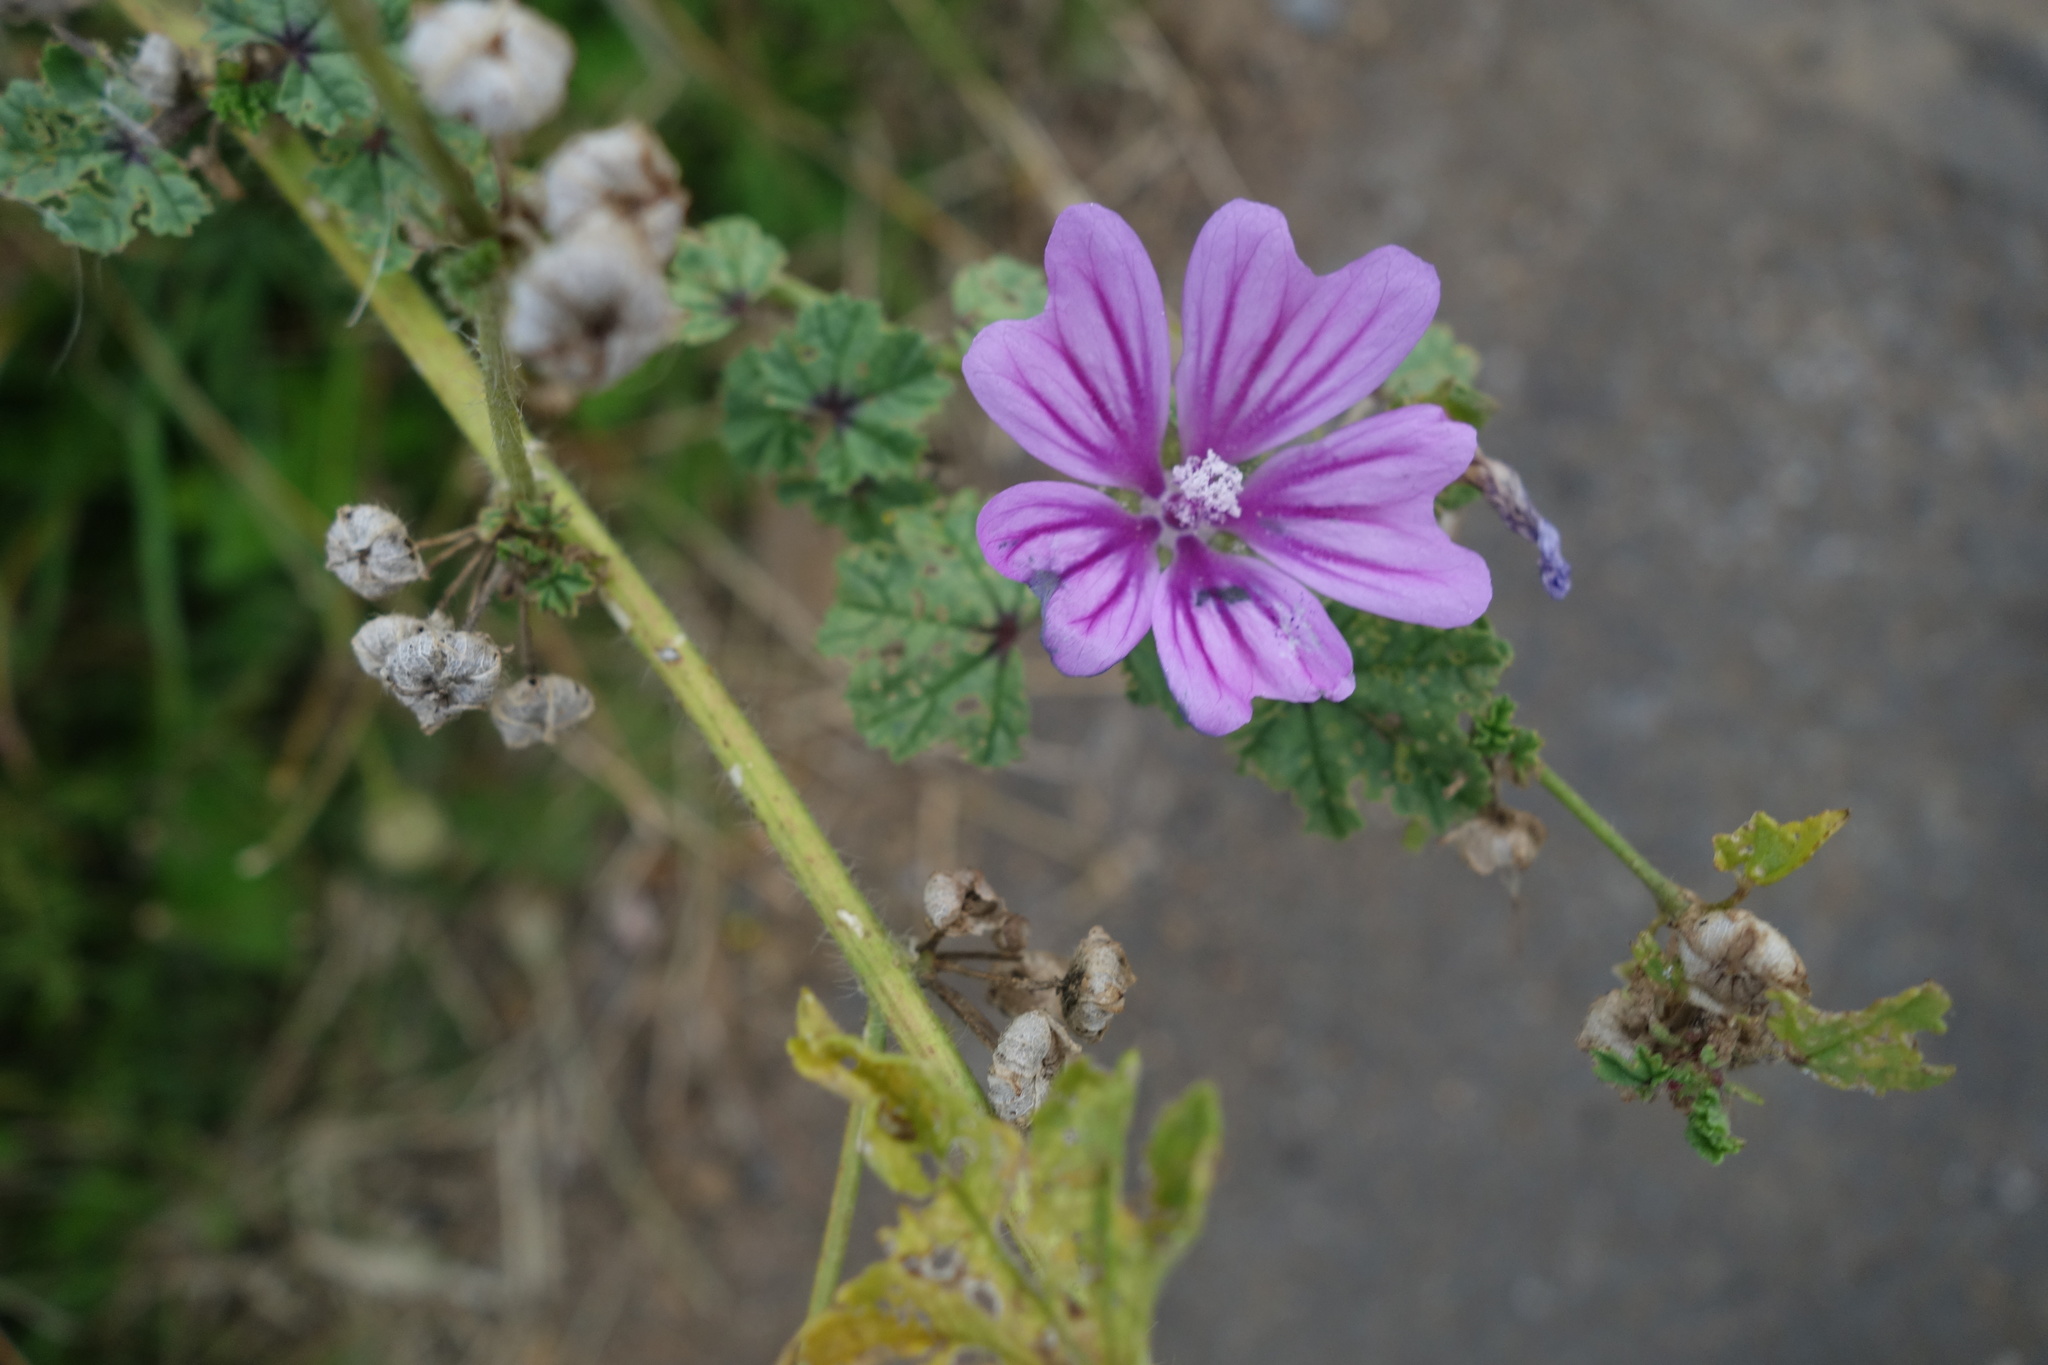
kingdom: Plantae
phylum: Tracheophyta
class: Magnoliopsida
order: Malvales
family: Malvaceae
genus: Malva
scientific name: Malva sylvestris
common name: Common mallow
